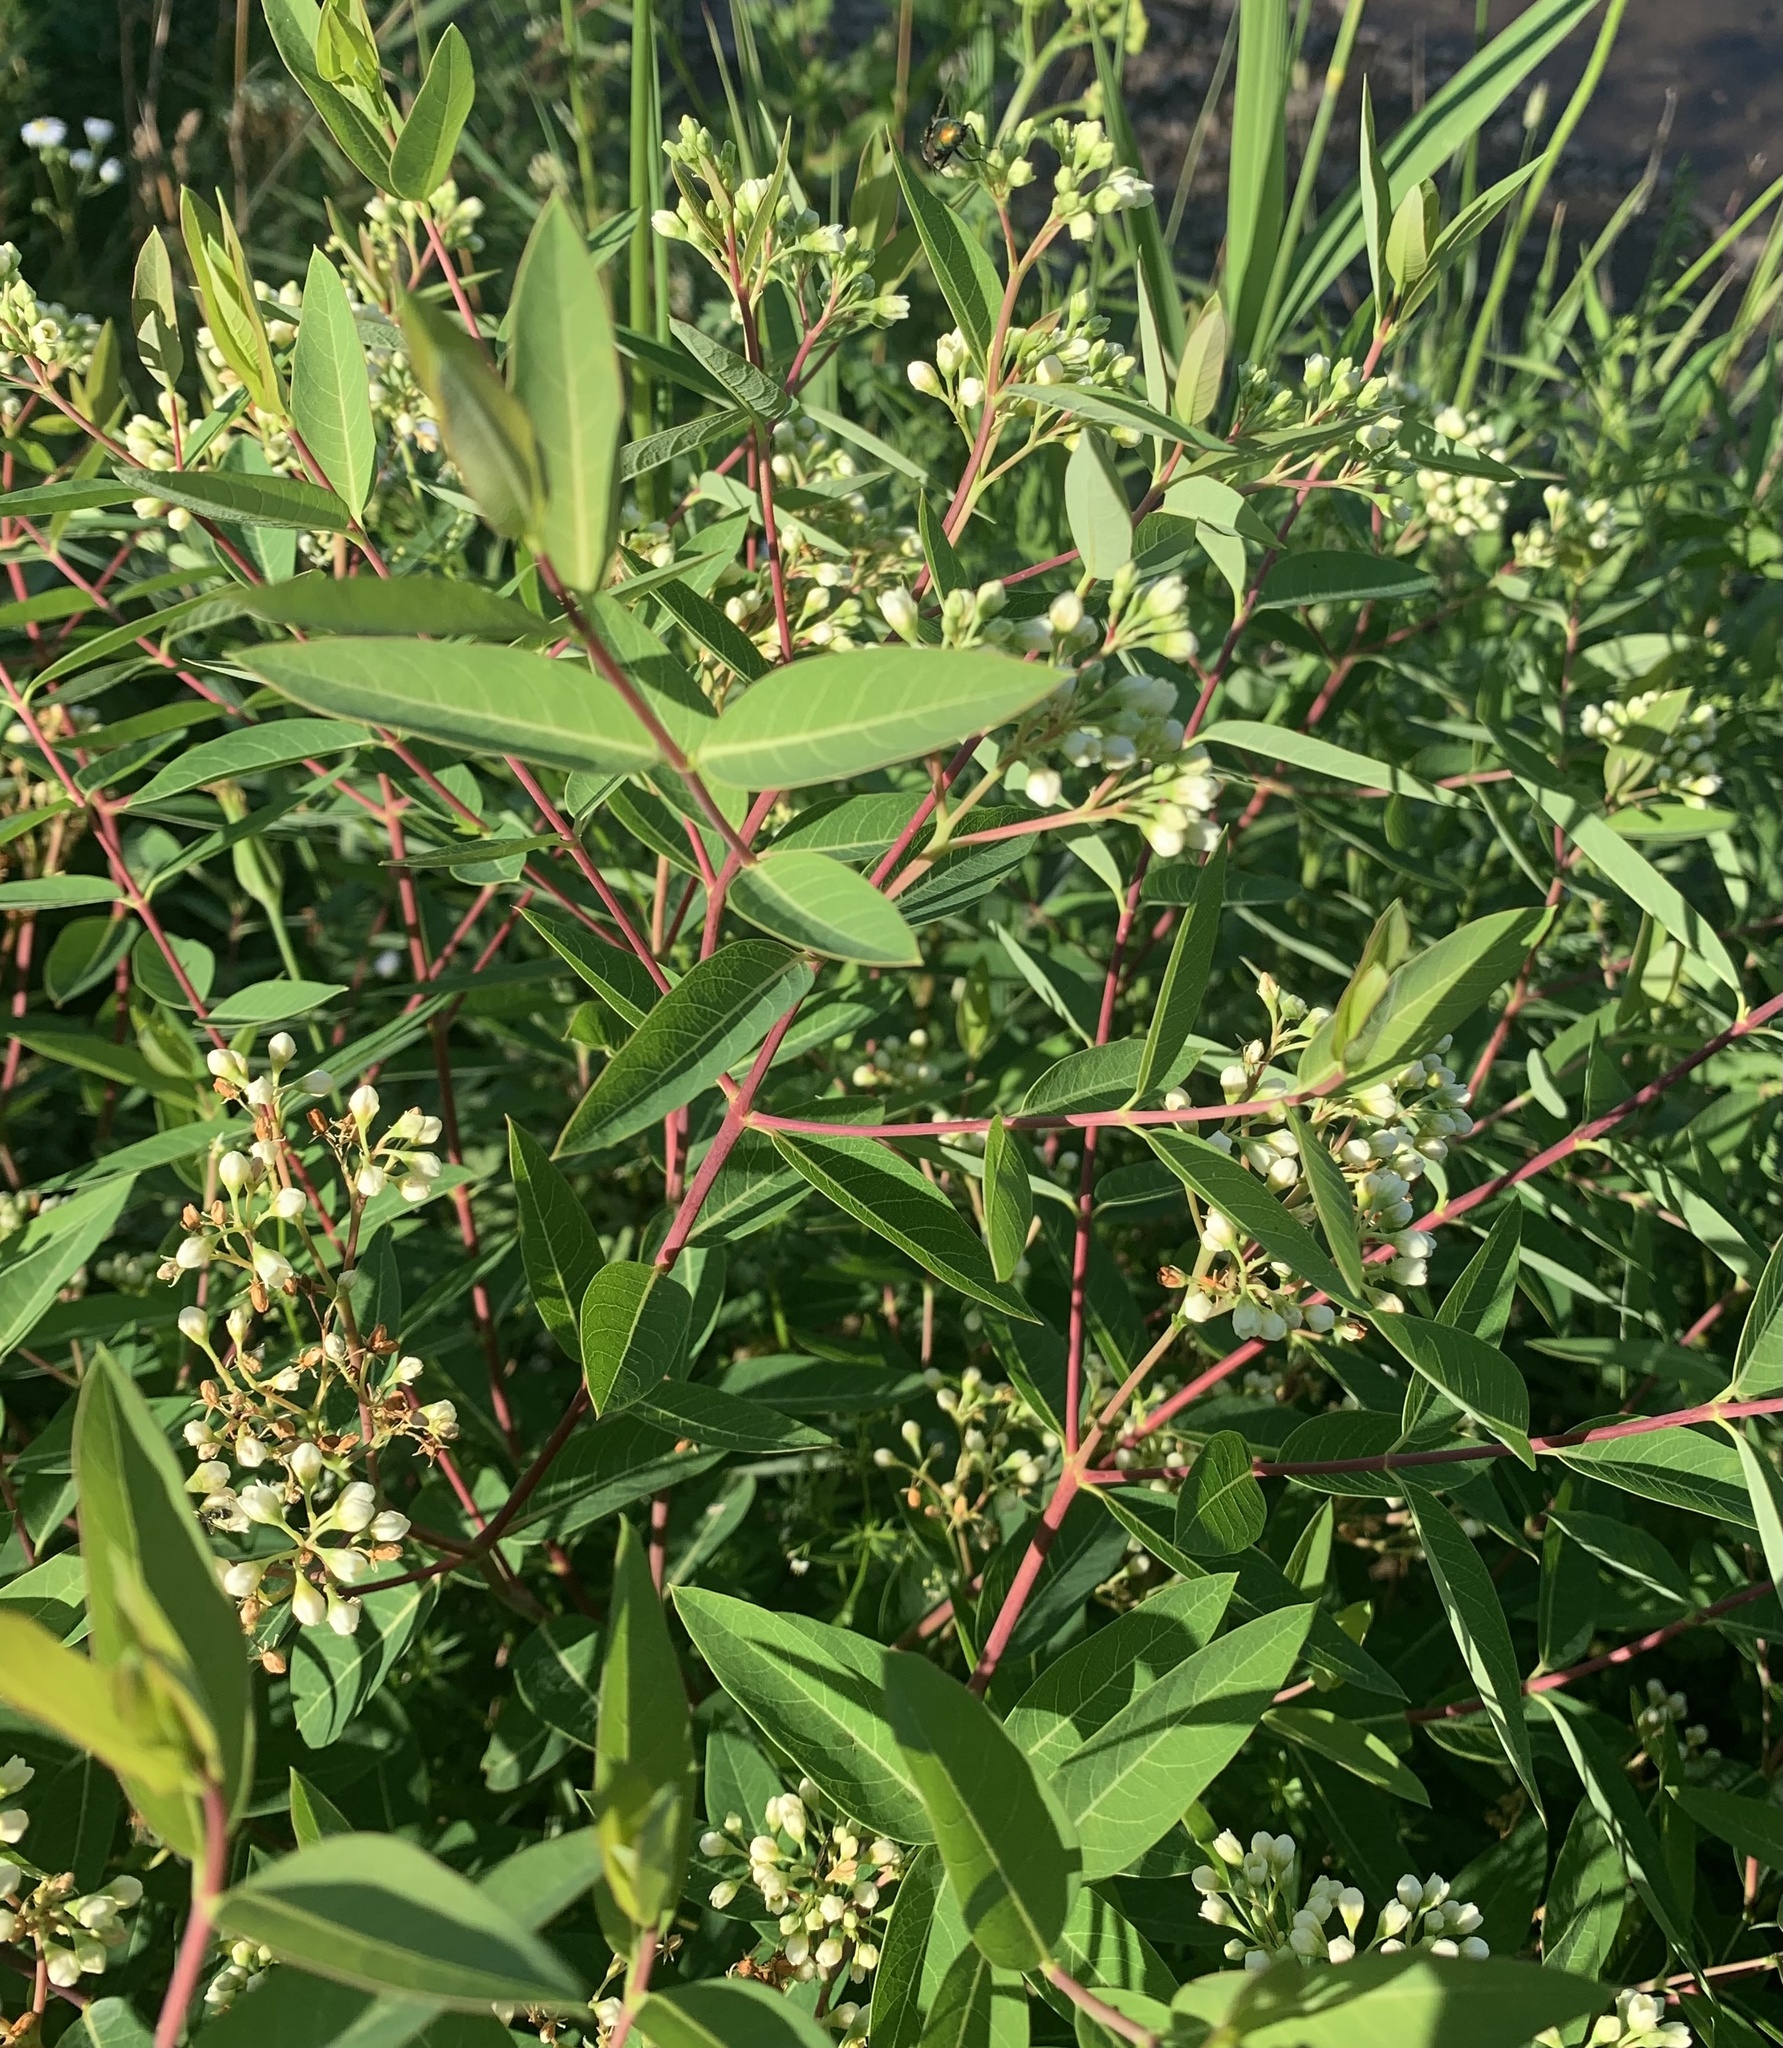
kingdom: Plantae
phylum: Tracheophyta
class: Magnoliopsida
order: Gentianales
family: Apocynaceae
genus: Apocynum
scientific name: Apocynum cannabinum
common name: Hemp dogbane
